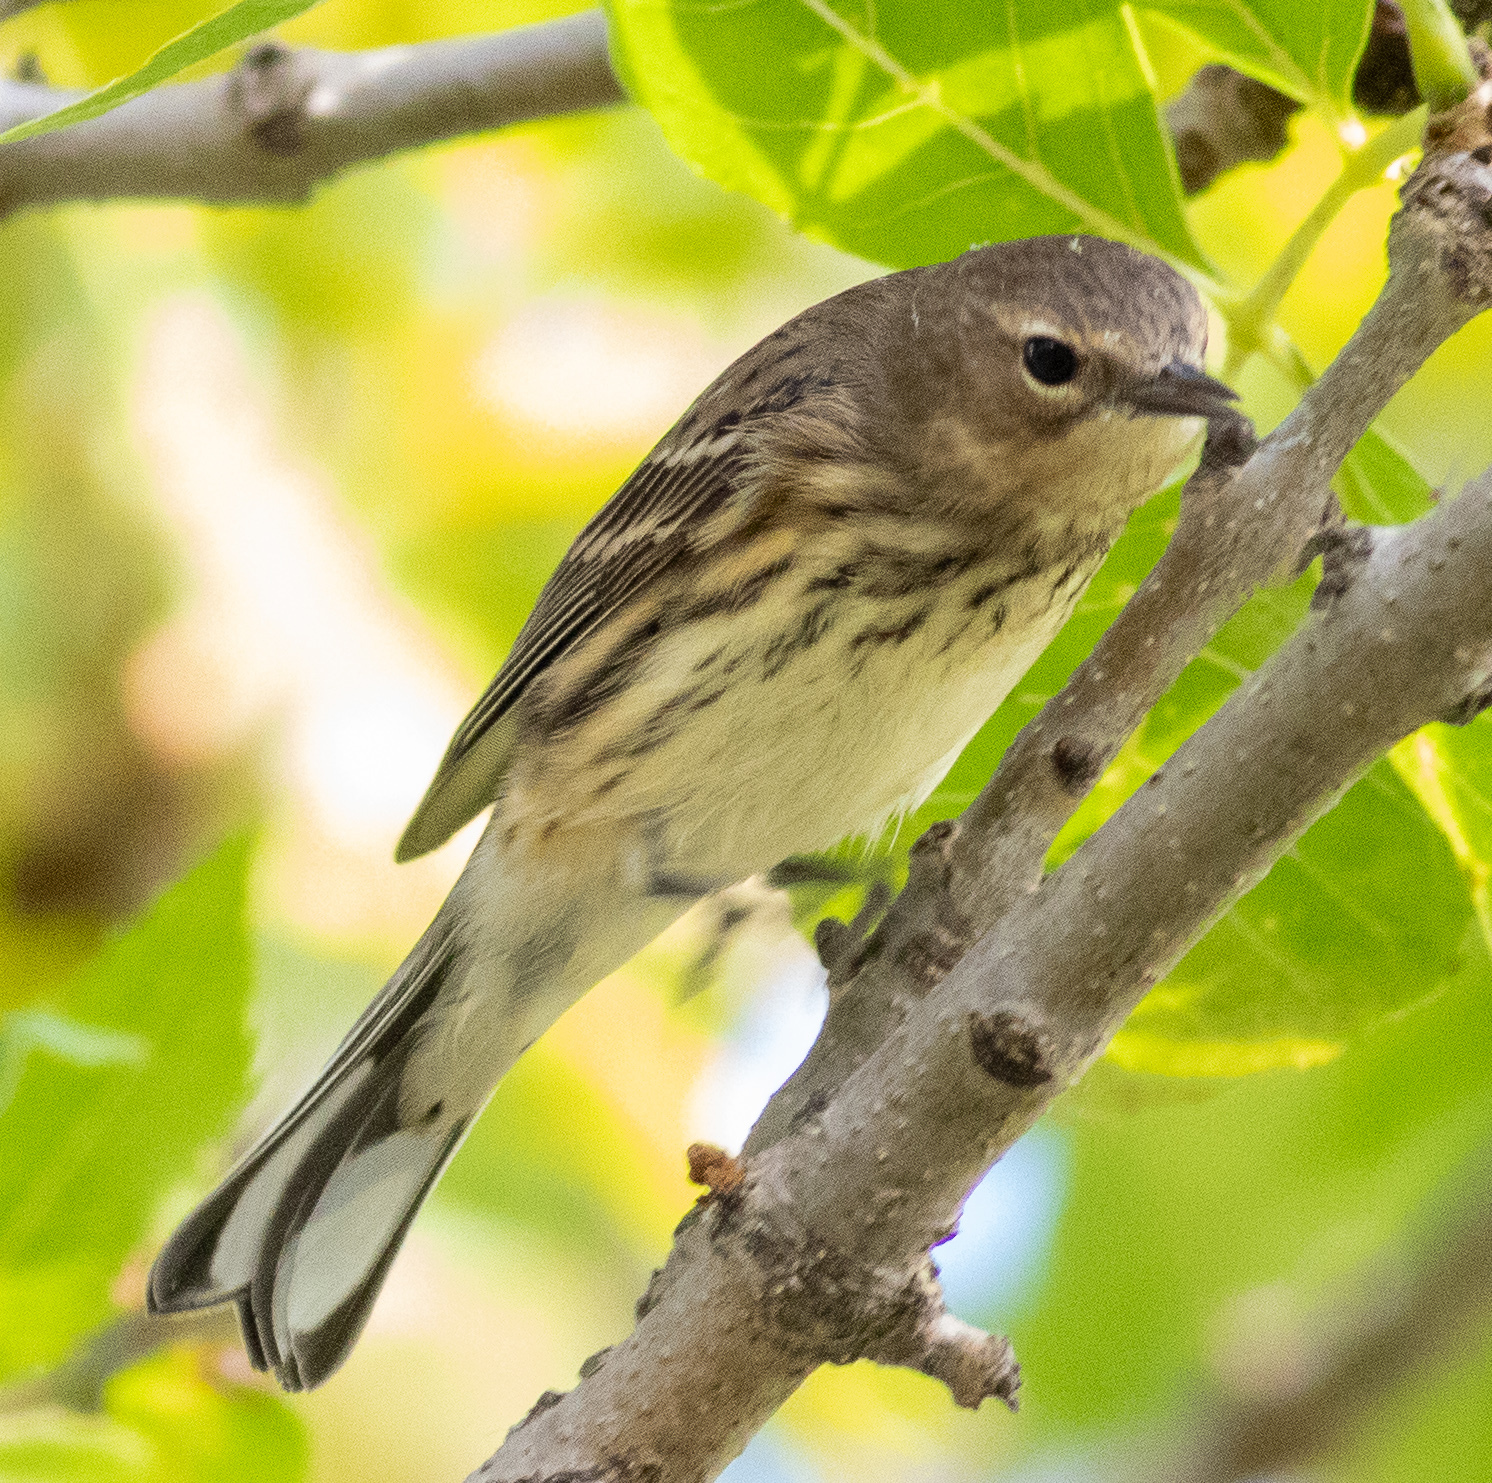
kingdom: Animalia
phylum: Chordata
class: Aves
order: Passeriformes
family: Parulidae
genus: Setophaga
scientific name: Setophaga coronata
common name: Myrtle warbler
